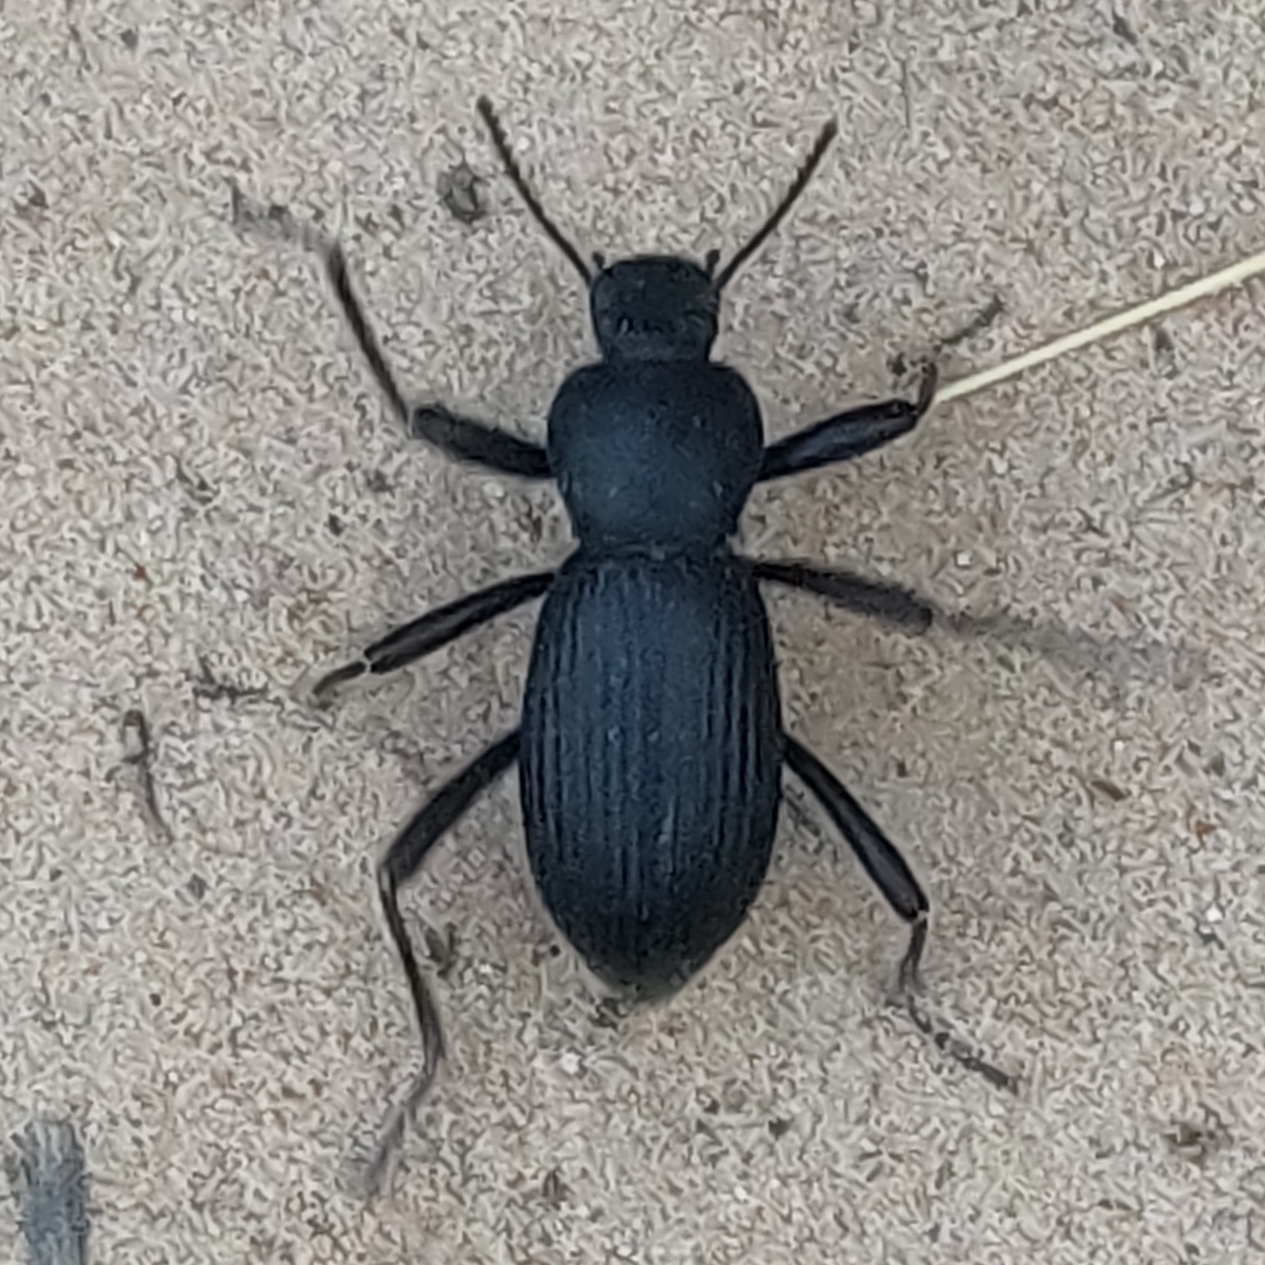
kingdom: Animalia
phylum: Arthropoda
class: Insecta
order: Coleoptera
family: Tenebrionidae
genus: Coelocnemis
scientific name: Coelocnemis sulcata
